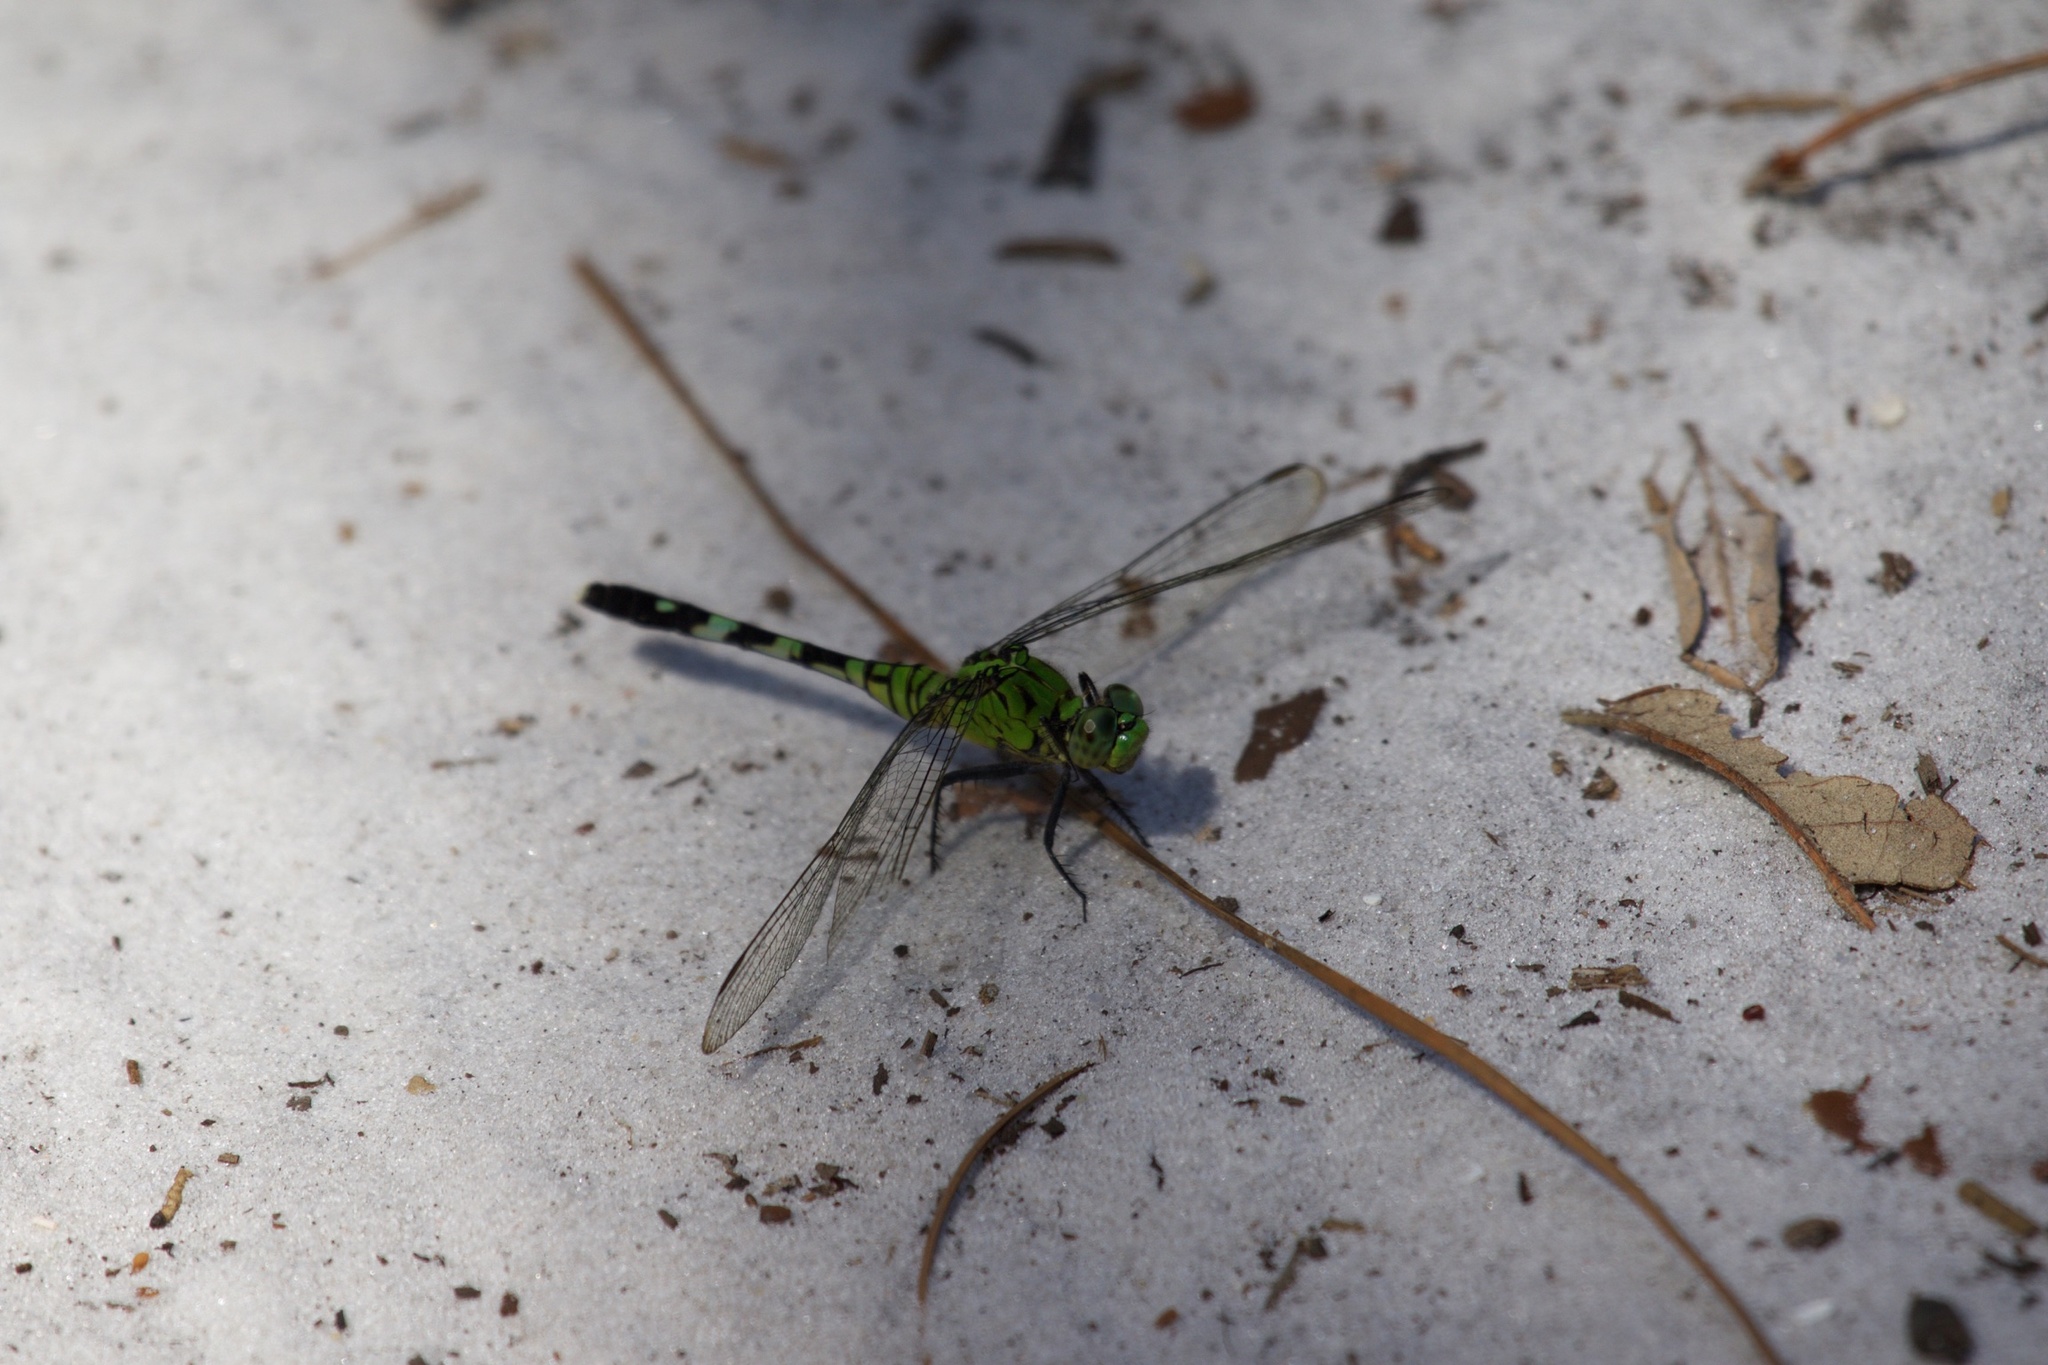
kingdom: Animalia
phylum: Arthropoda
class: Insecta
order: Odonata
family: Libellulidae
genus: Erythemis
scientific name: Erythemis simplicicollis
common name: Eastern pondhawk
